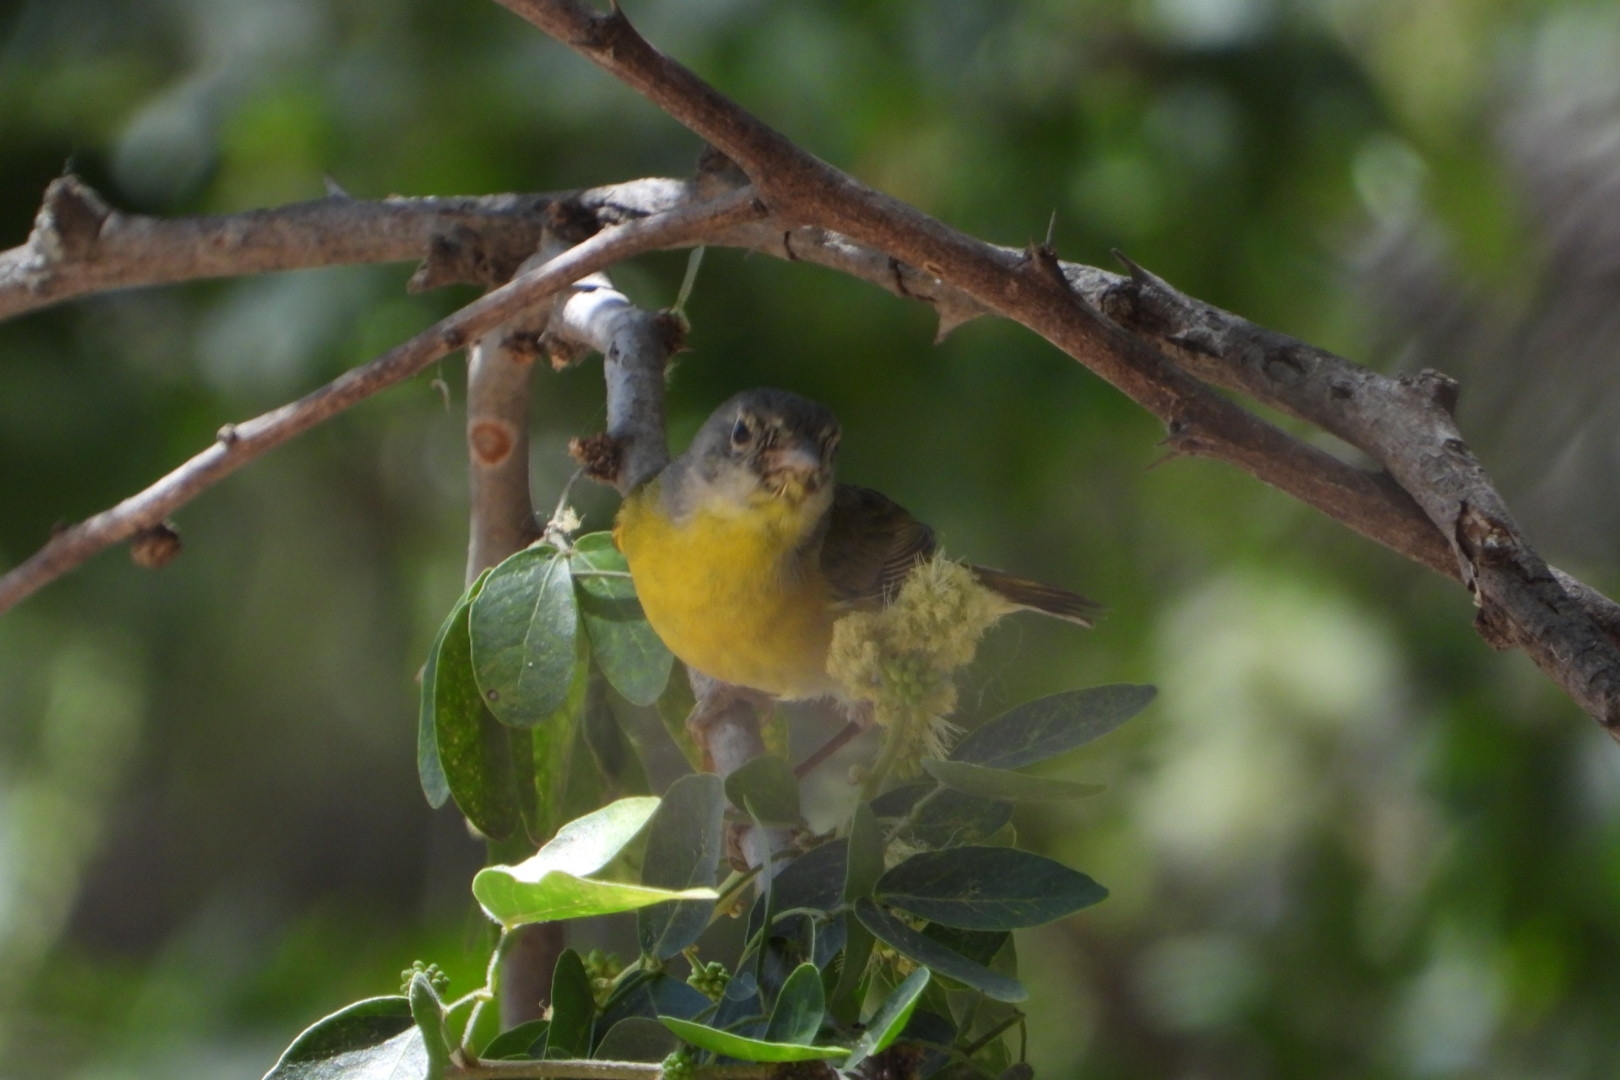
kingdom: Animalia
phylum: Chordata
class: Aves
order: Passeriformes
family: Parulidae
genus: Leiothlypis
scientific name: Leiothlypis ruficapilla
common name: Nashville warbler
